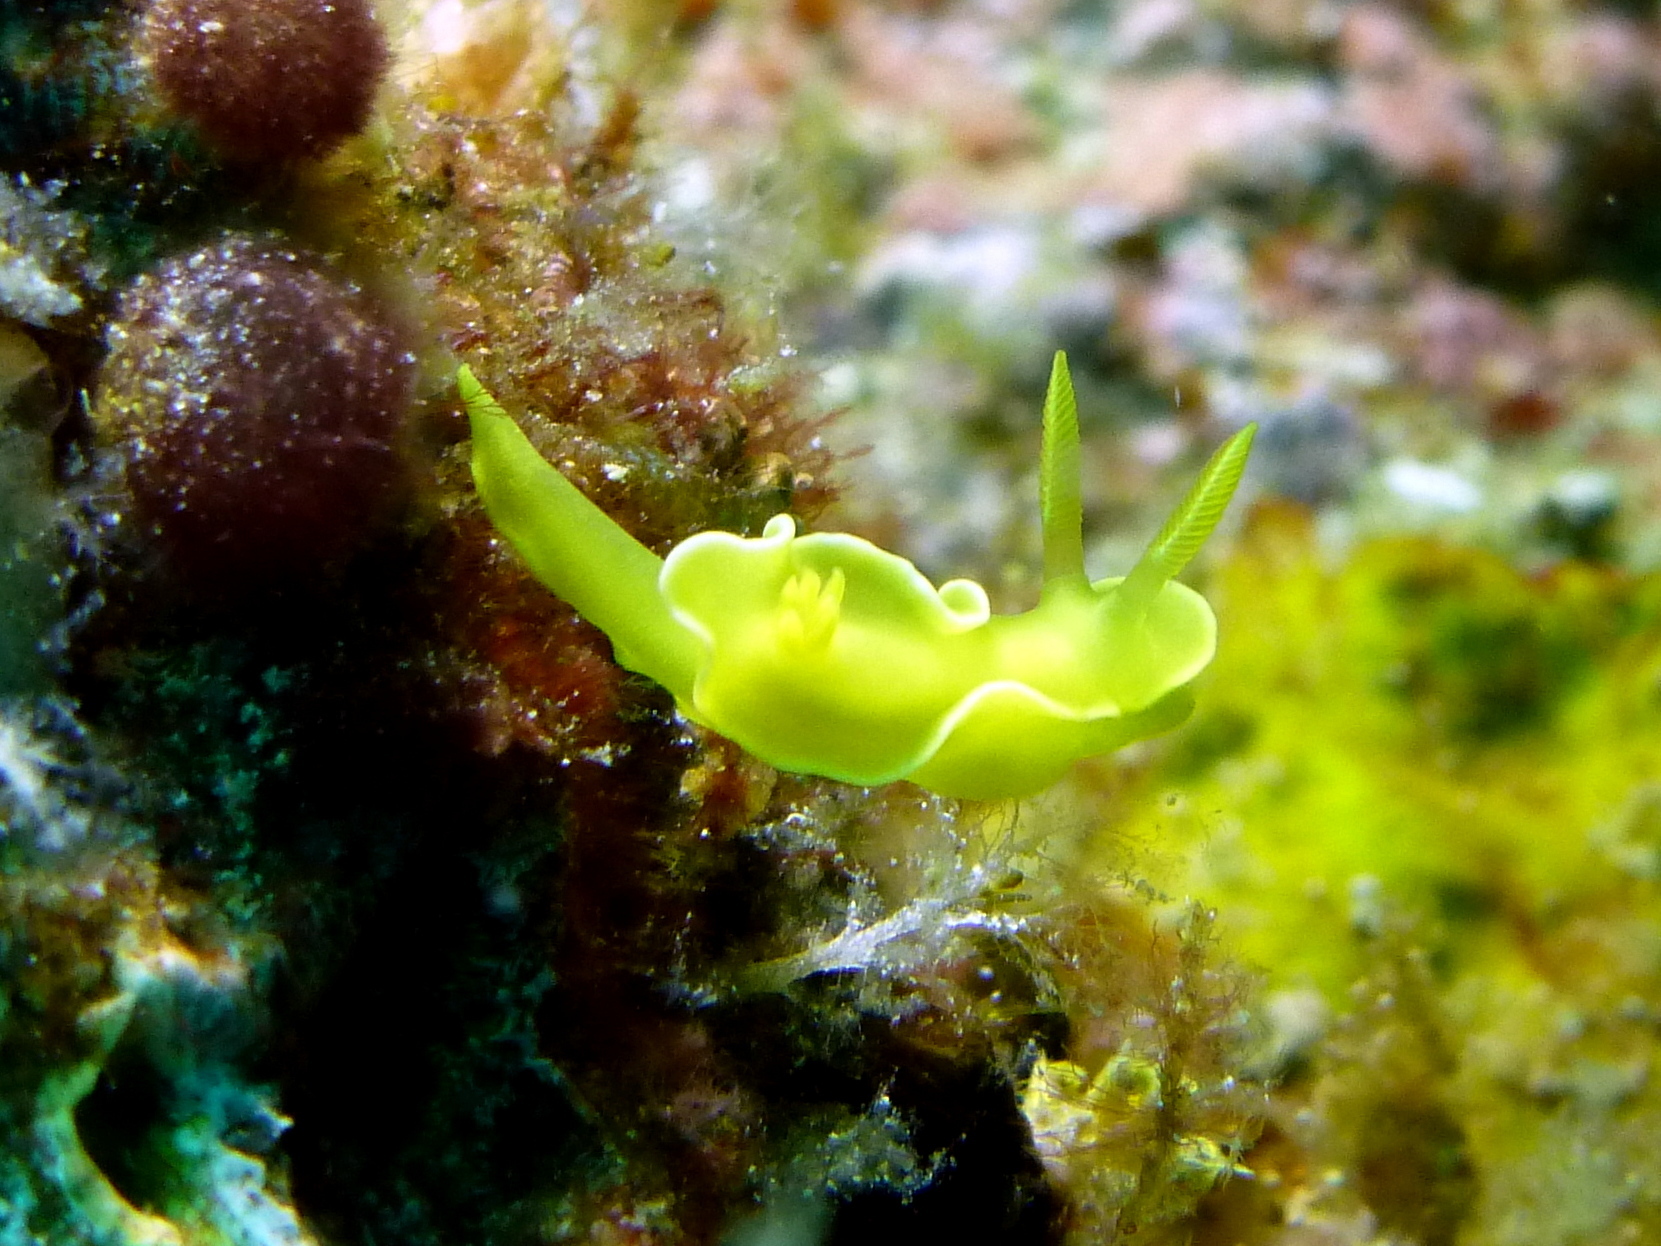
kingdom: Animalia
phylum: Mollusca
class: Gastropoda
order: Nudibranchia
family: Chromodorididae
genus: Diversidoris
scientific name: Diversidoris crocea
